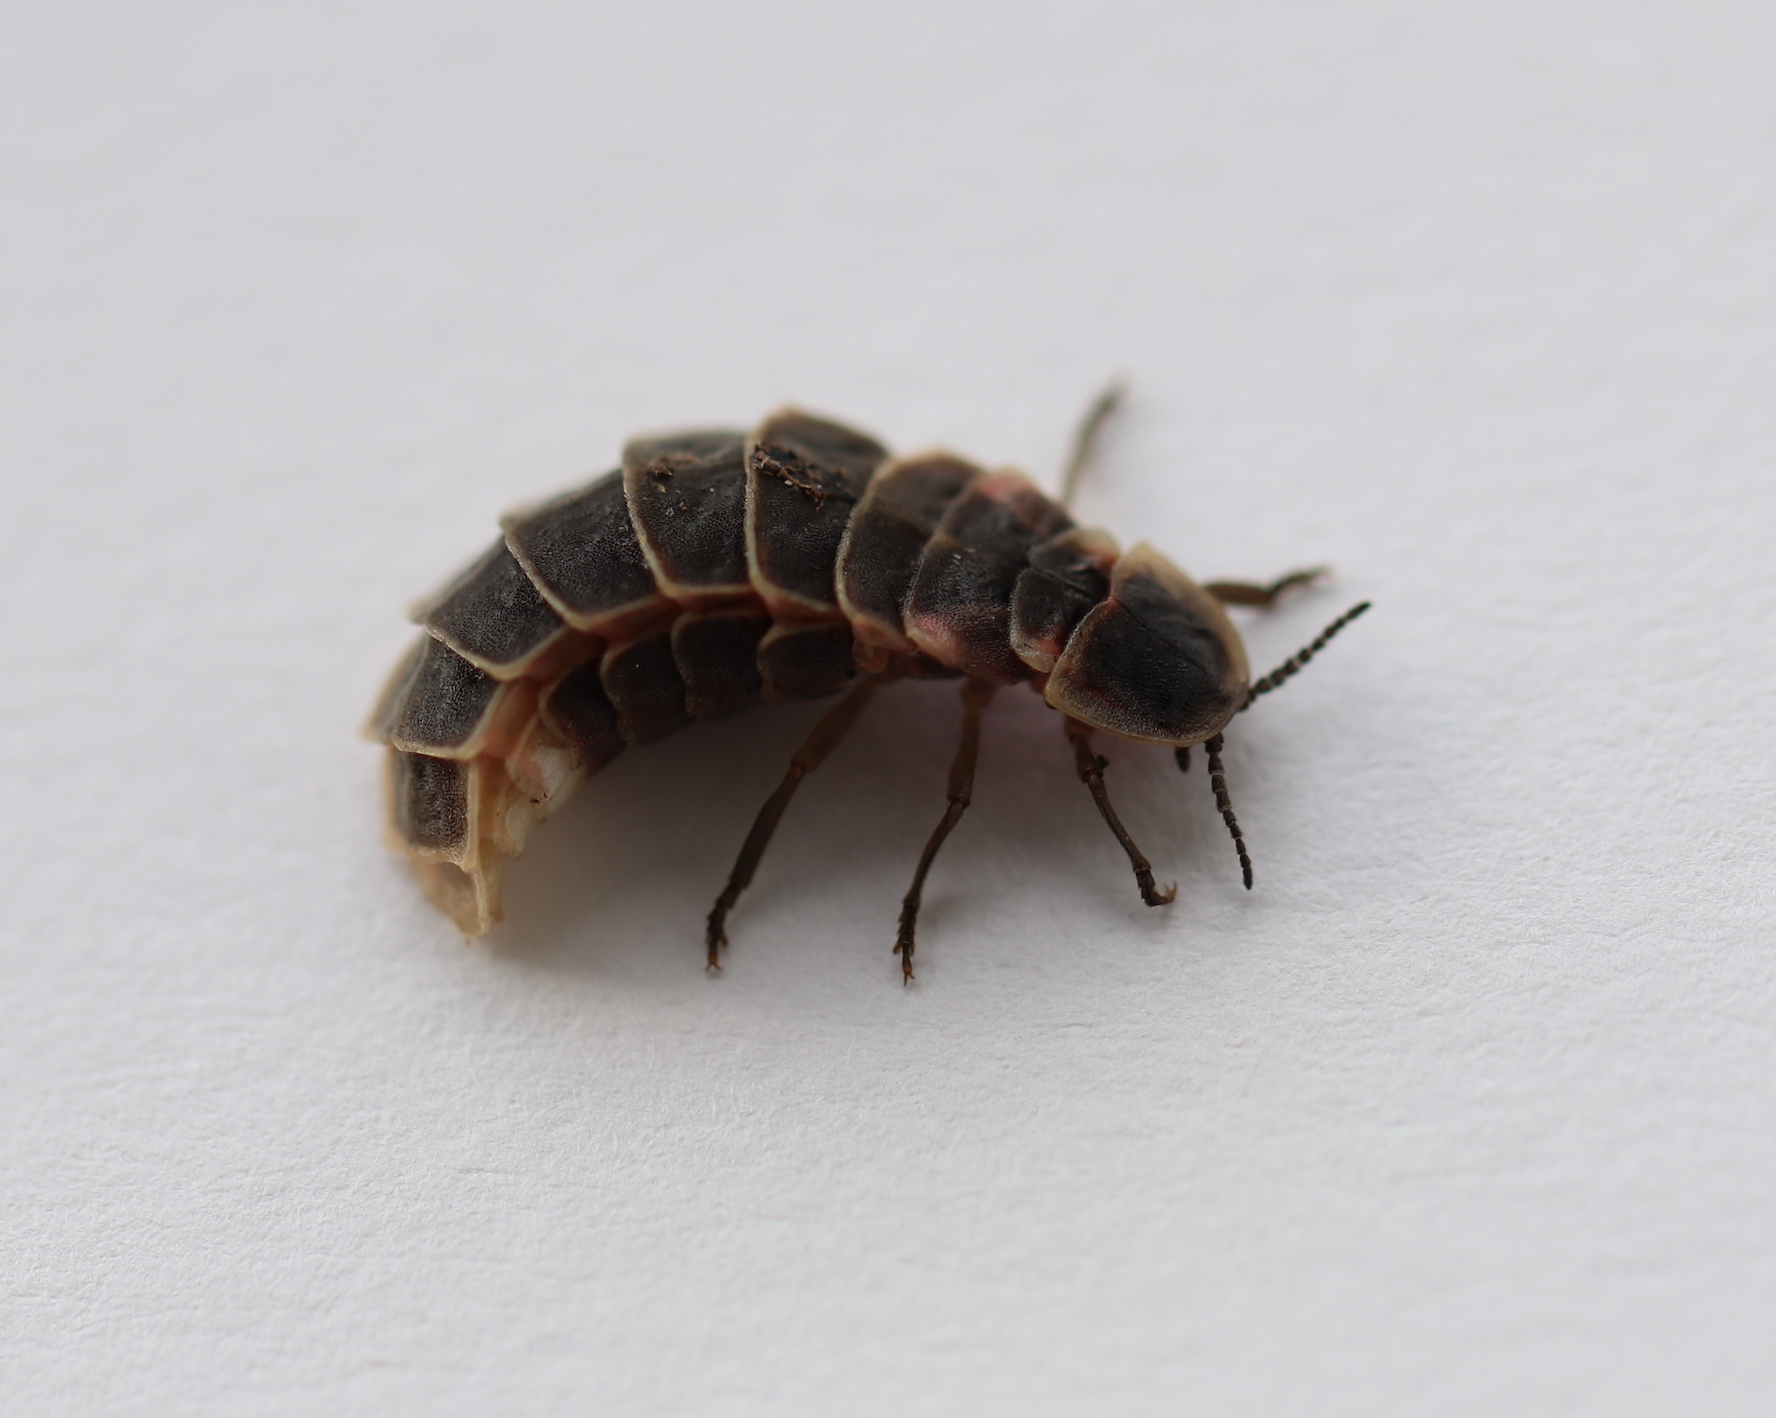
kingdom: Animalia
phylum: Arthropoda
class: Insecta
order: Coleoptera
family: Lampyridae
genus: Lampyris
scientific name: Lampyris noctiluca
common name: Glow-worm
